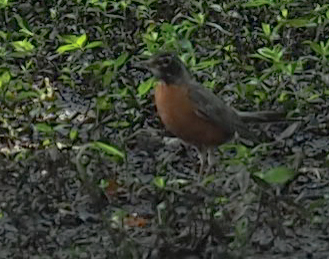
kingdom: Animalia
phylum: Chordata
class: Aves
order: Passeriformes
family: Turdidae
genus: Turdus
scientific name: Turdus migratorius
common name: American robin
